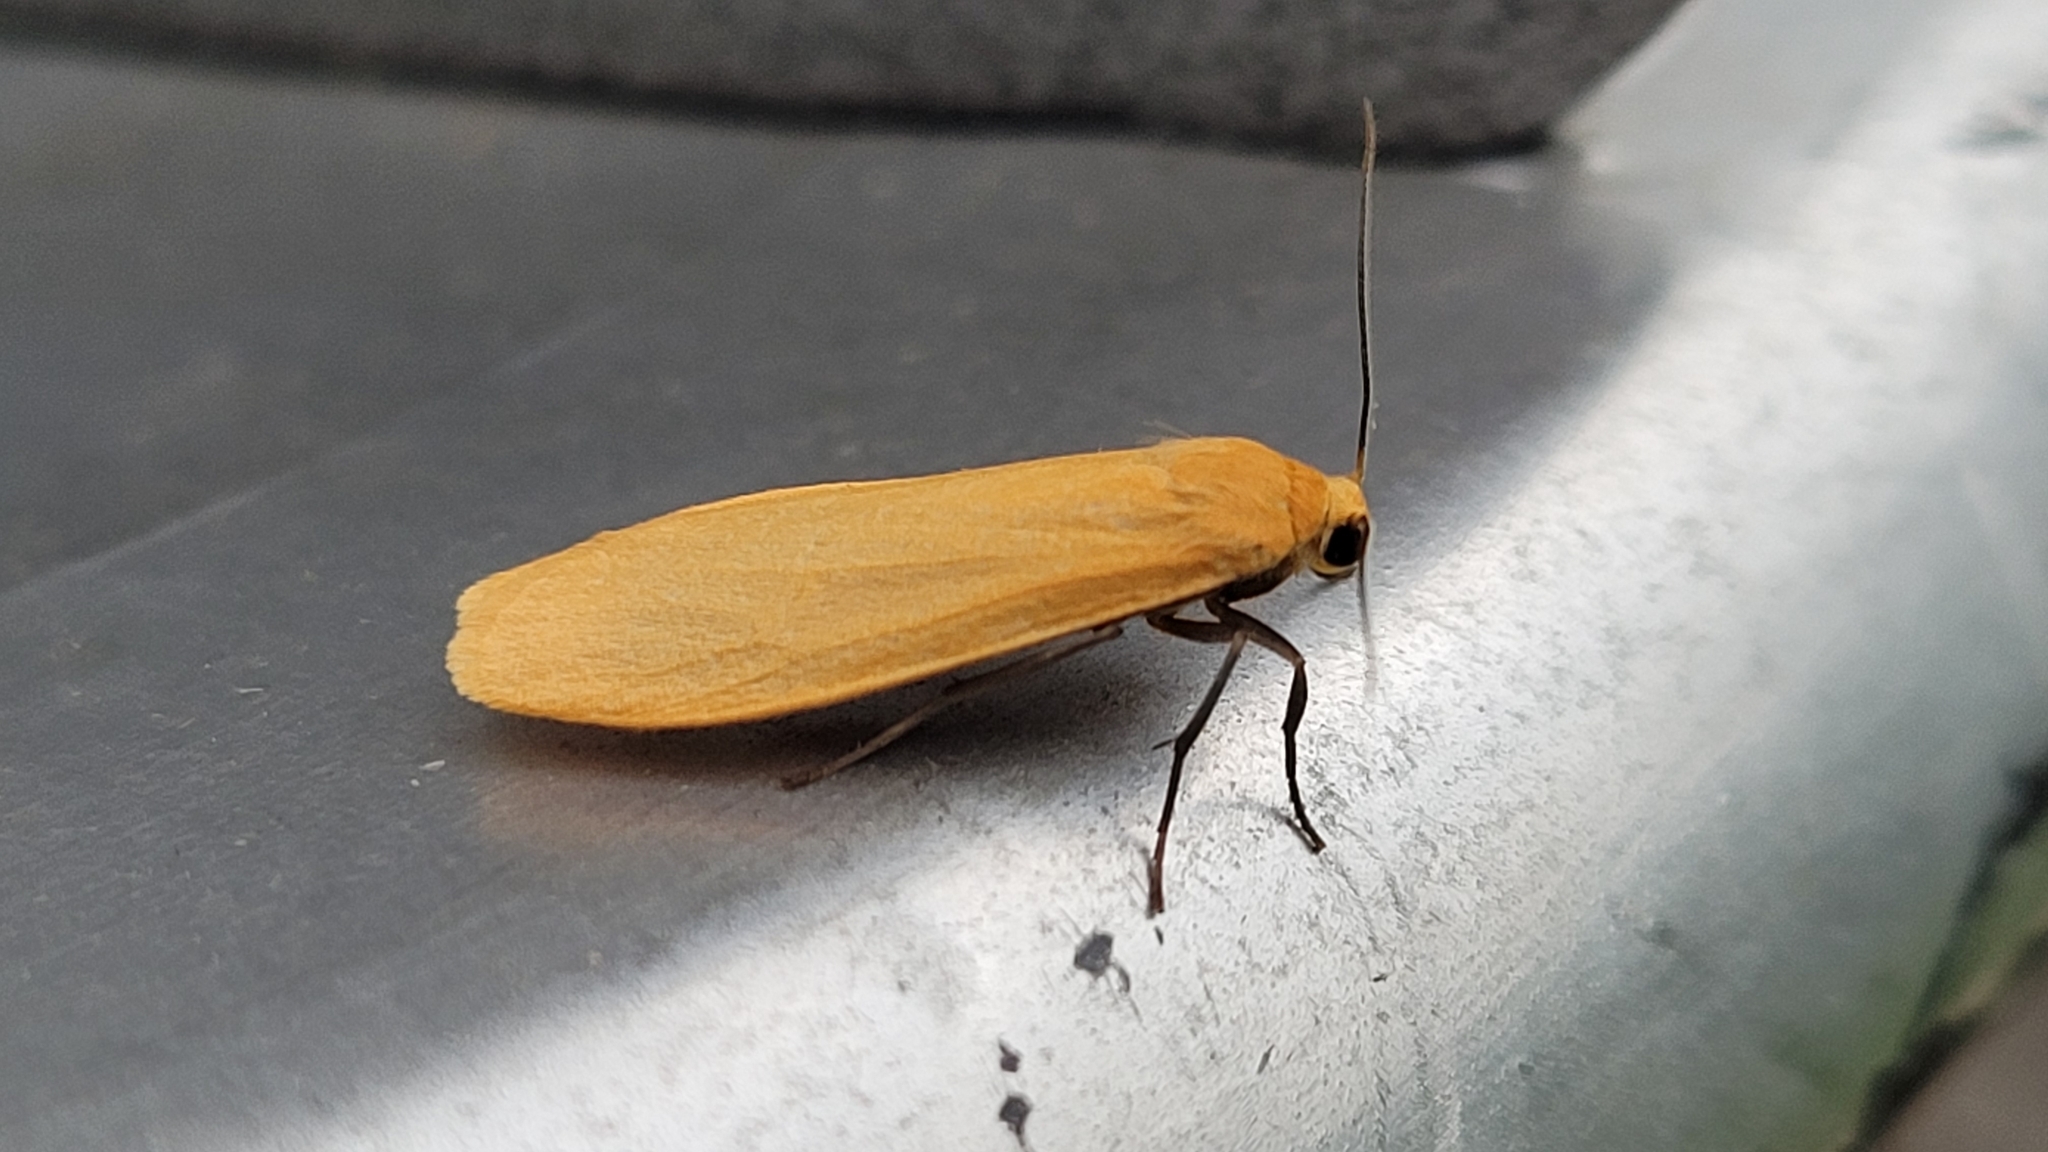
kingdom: Animalia
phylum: Arthropoda
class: Insecta
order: Lepidoptera
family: Erebidae
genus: Wittia
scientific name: Wittia sororcula
